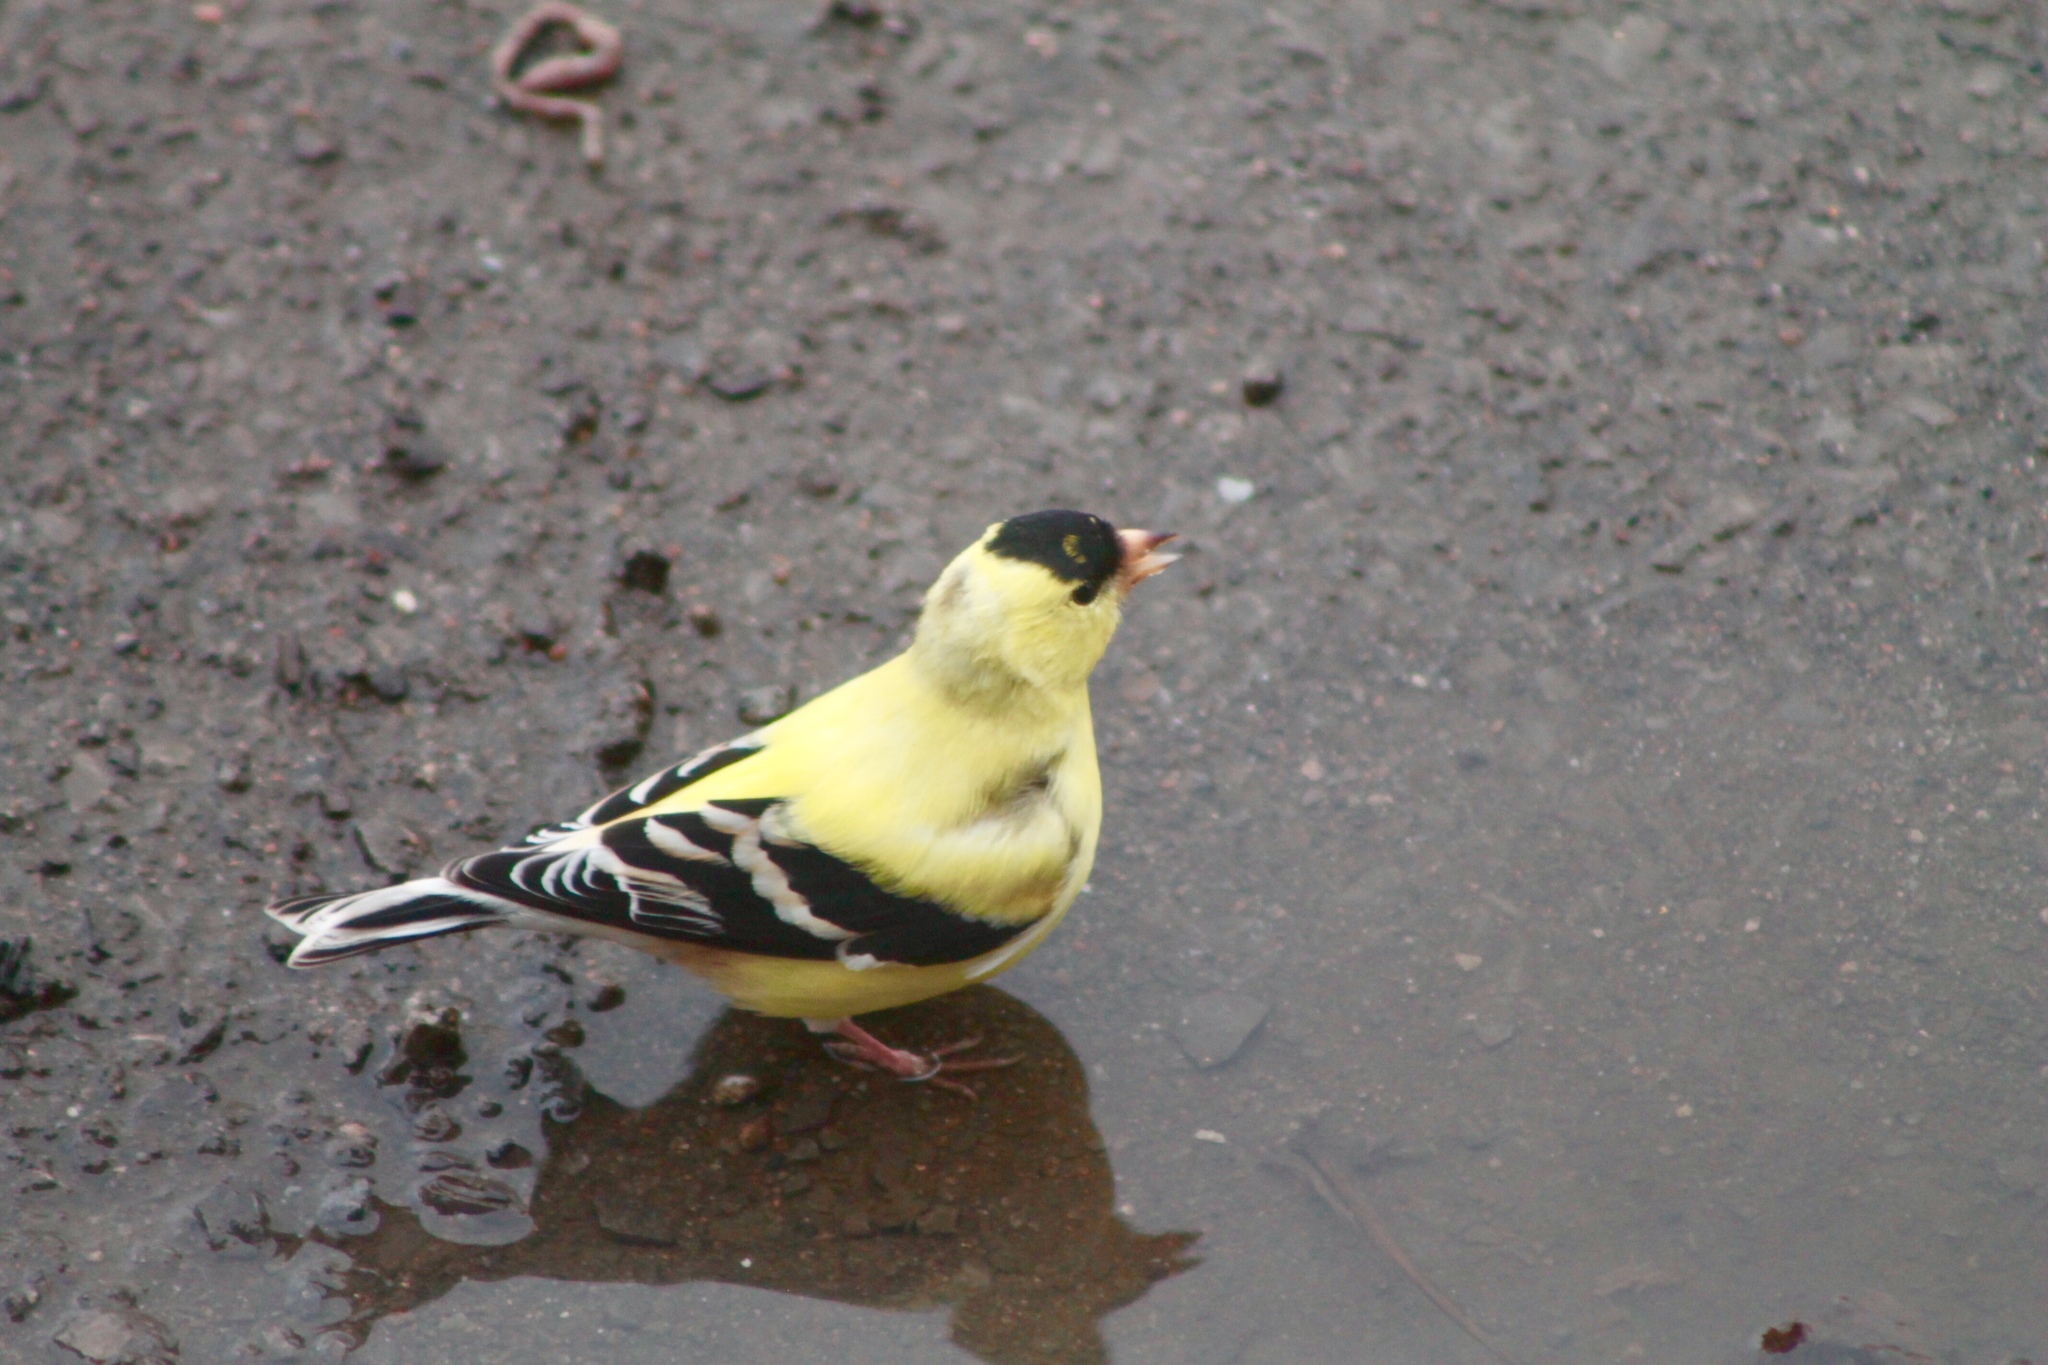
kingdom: Animalia
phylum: Chordata
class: Aves
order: Passeriformes
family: Fringillidae
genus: Spinus
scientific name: Spinus tristis
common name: American goldfinch
